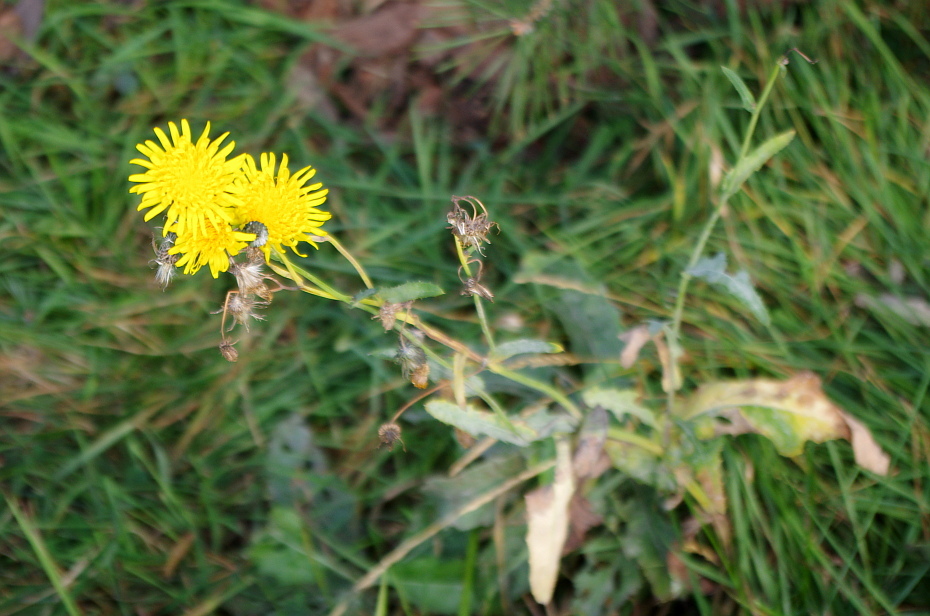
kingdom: Plantae
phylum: Tracheophyta
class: Magnoliopsida
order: Asterales
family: Asteraceae
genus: Sonchus
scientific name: Sonchus arvensis
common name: Perennial sow-thistle
